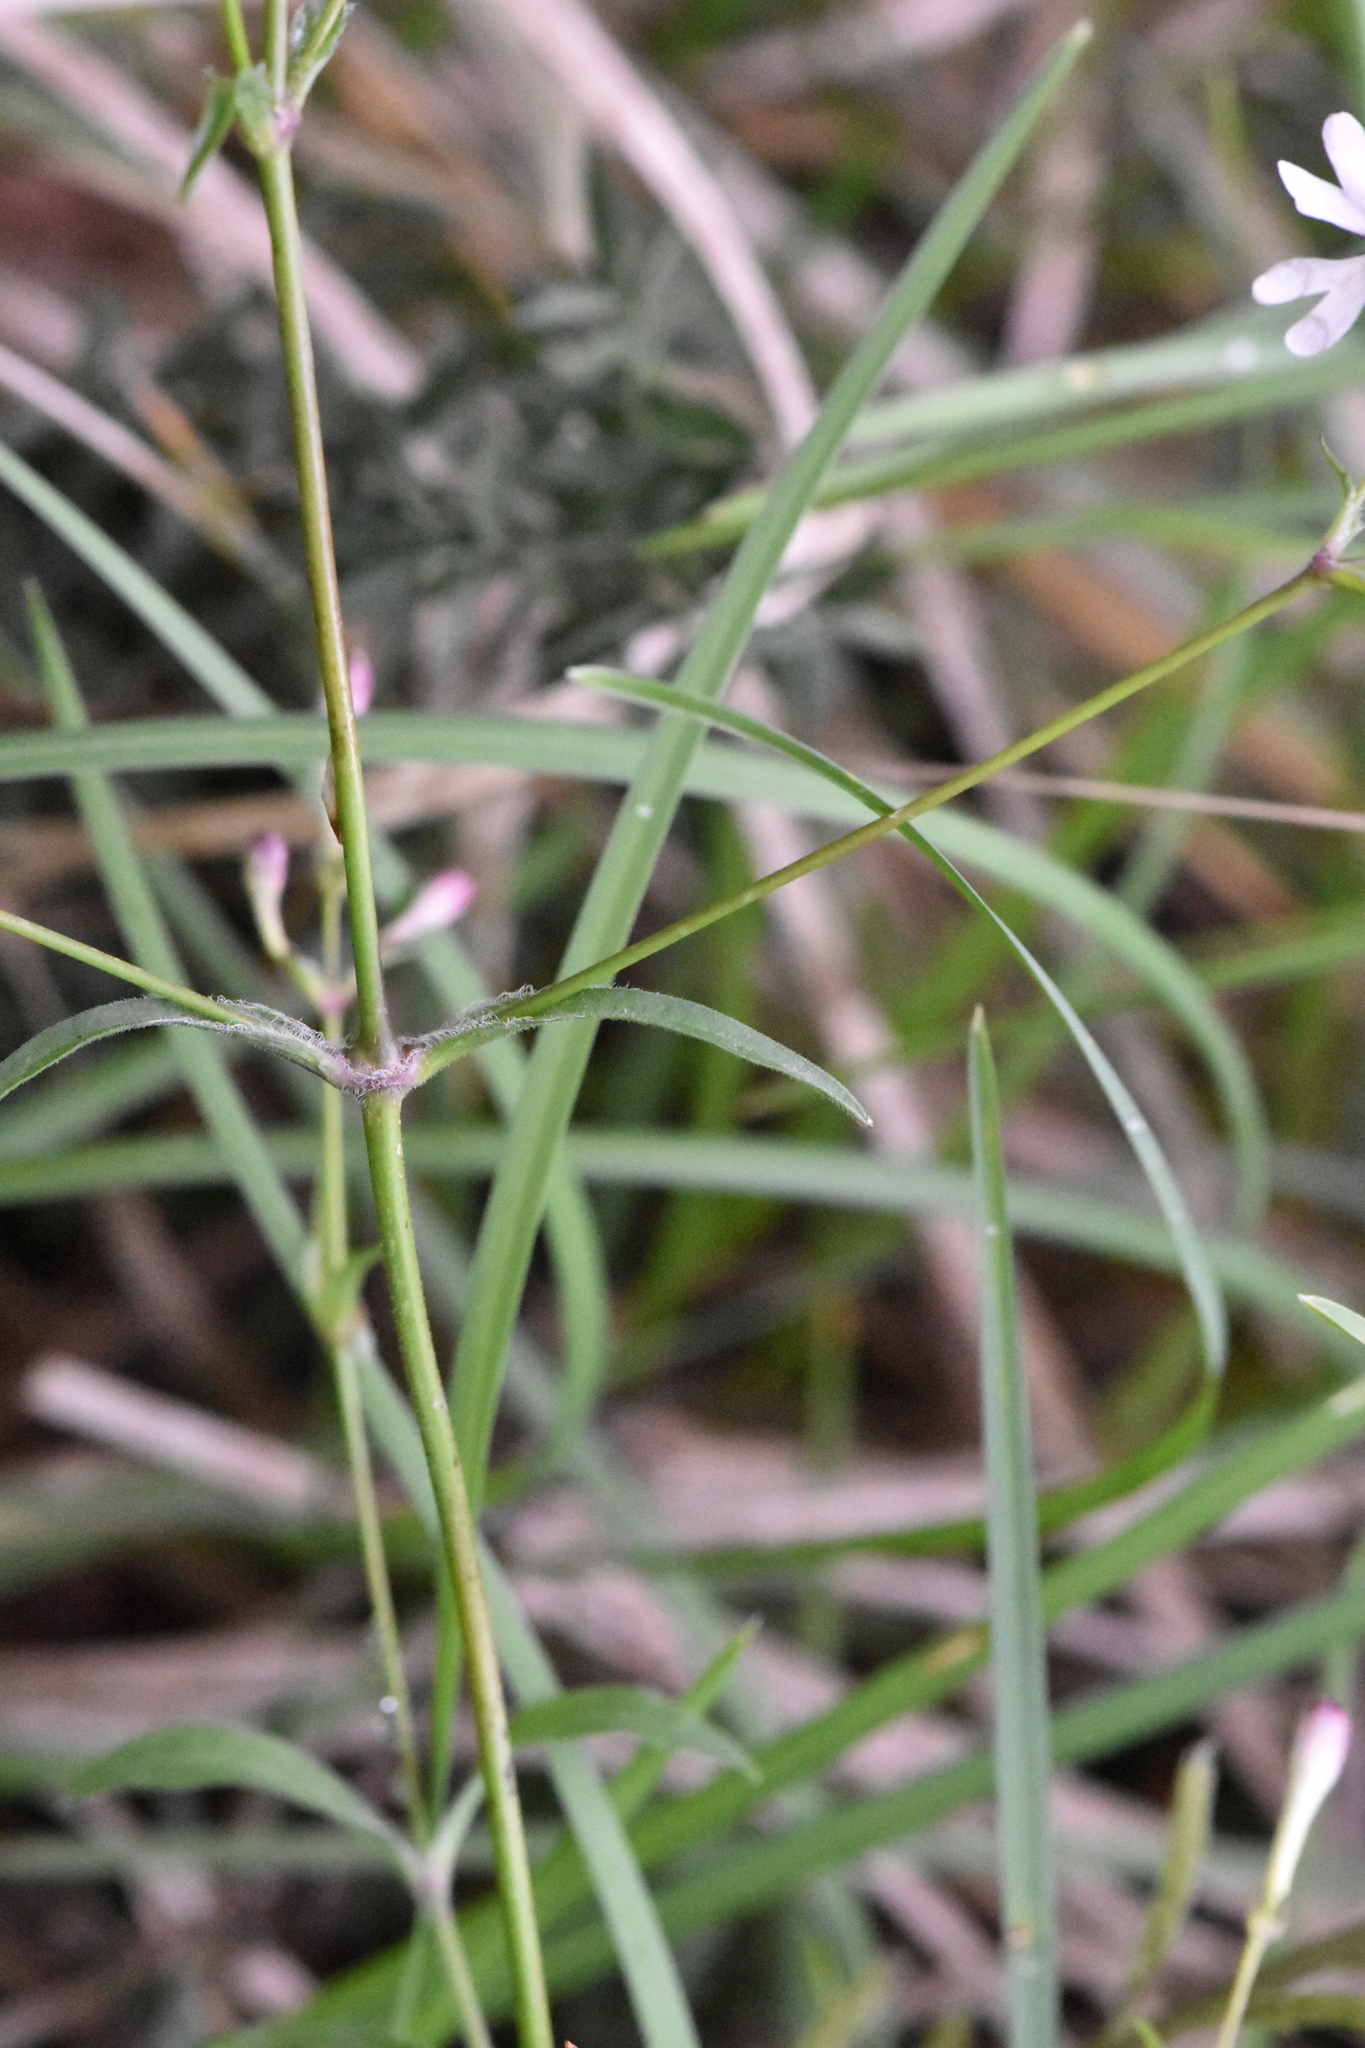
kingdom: Plantae
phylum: Tracheophyta
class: Magnoliopsida
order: Caryophyllales
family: Caryophyllaceae
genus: Silene
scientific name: Silene italica
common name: Italian catchfly
